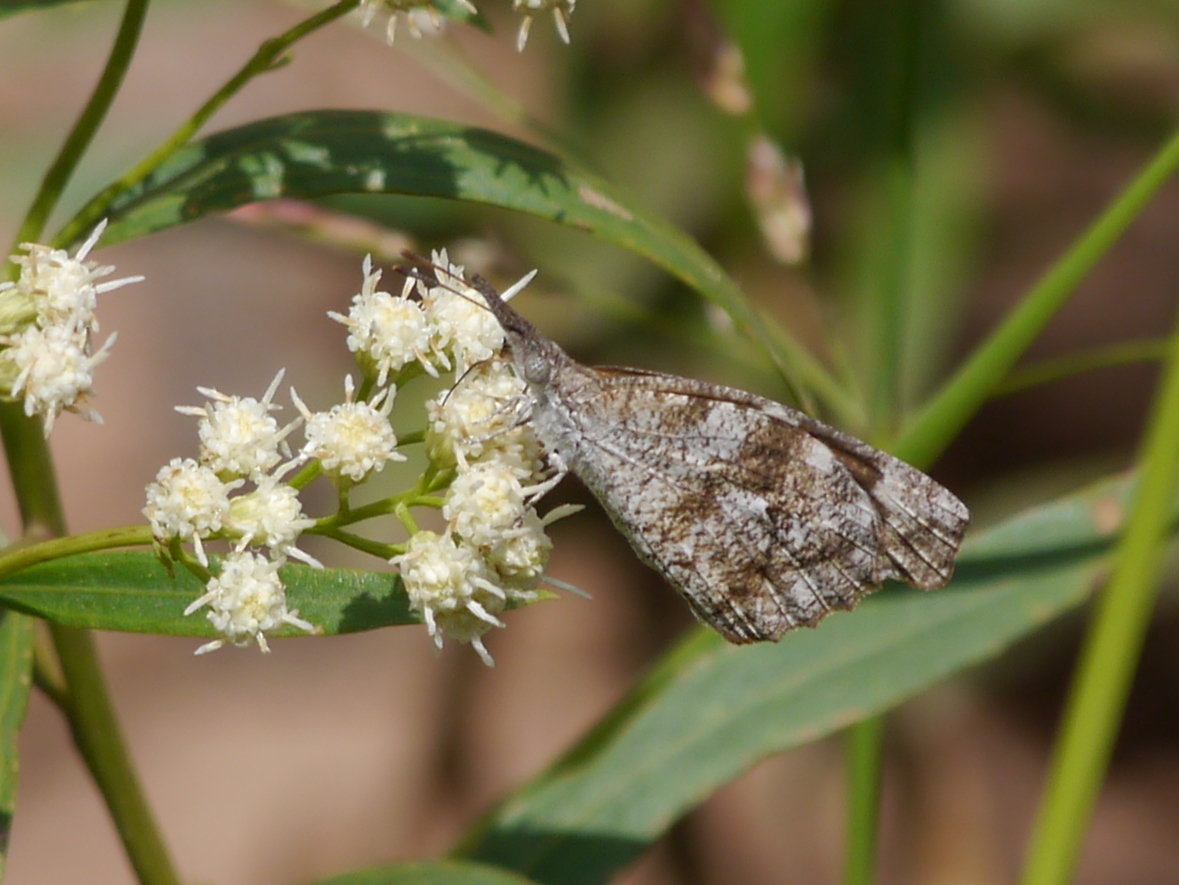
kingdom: Animalia
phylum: Arthropoda
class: Insecta
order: Lepidoptera
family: Nymphalidae
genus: Libytheana
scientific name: Libytheana carinenta
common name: American snout
